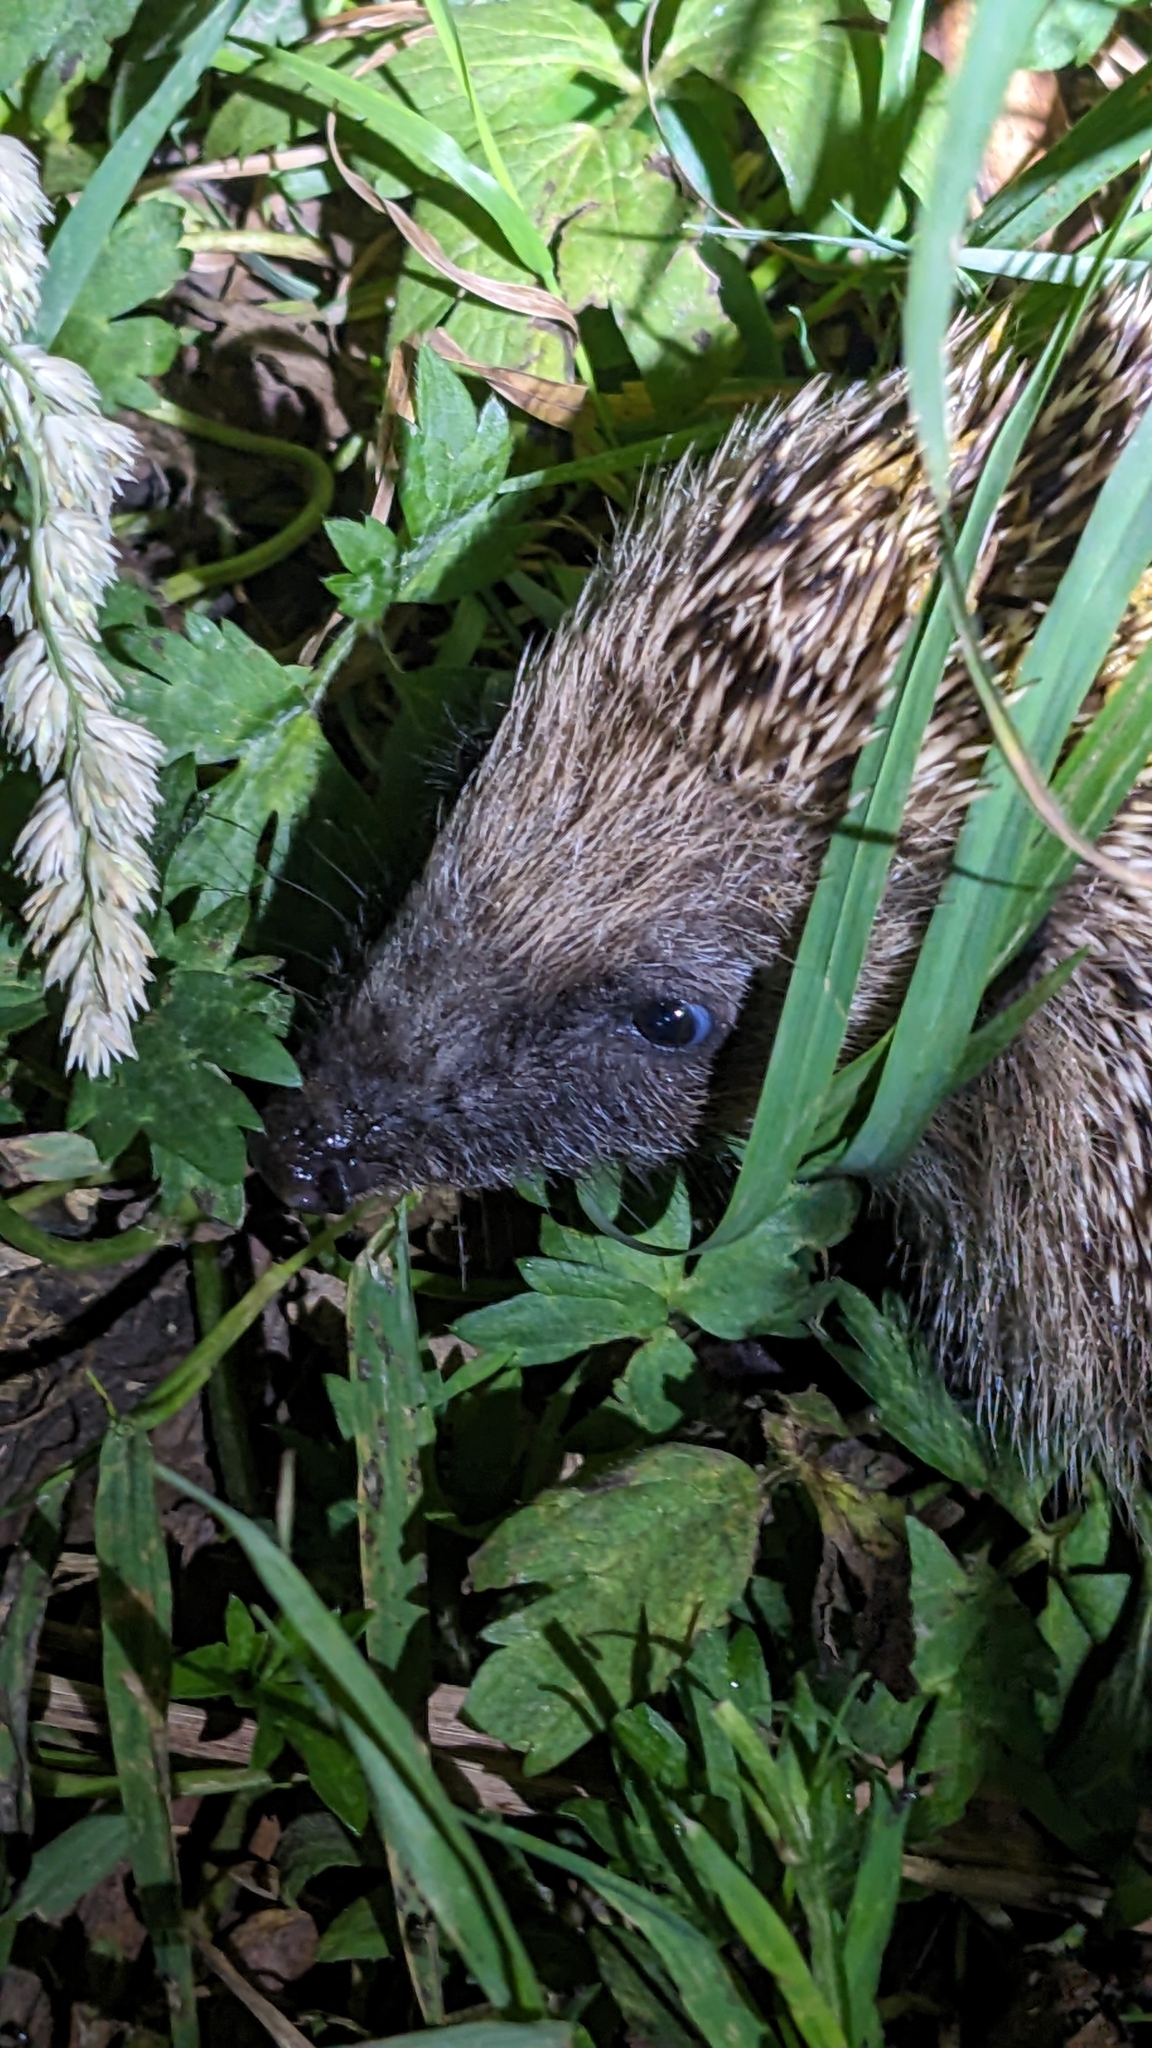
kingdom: Animalia
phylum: Chordata
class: Mammalia
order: Erinaceomorpha
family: Erinaceidae
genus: Erinaceus
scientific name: Erinaceus europaeus
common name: West european hedgehog
